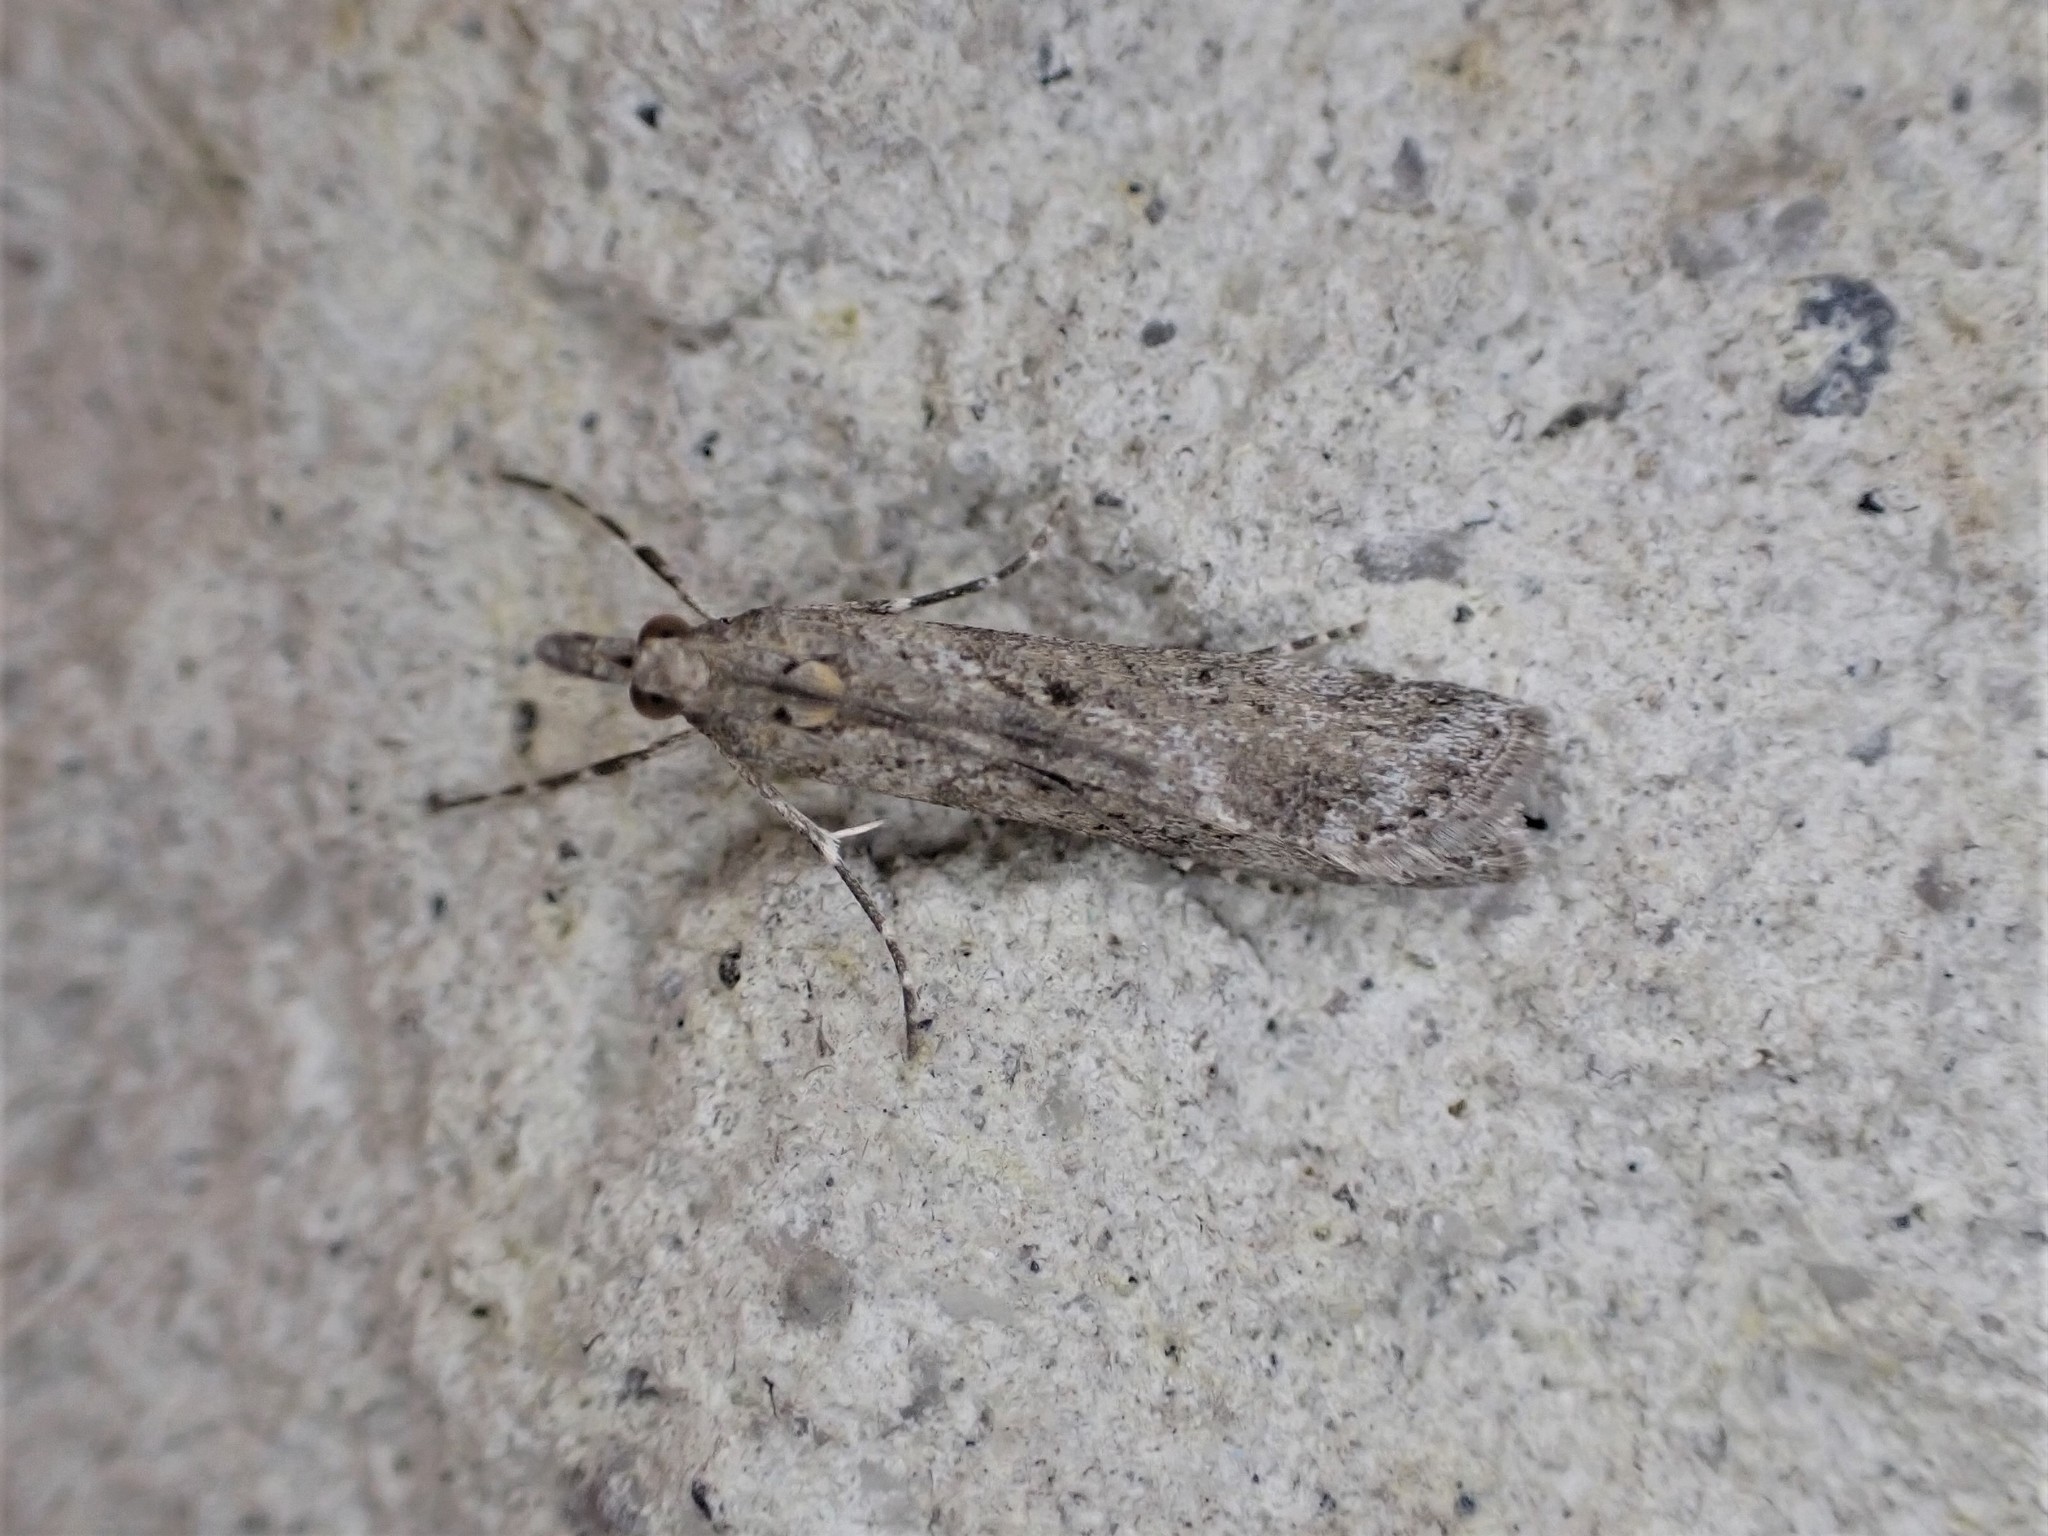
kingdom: Animalia
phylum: Arthropoda
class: Insecta
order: Lepidoptera
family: Crambidae
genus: Eudonia
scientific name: Eudonia leptalea
